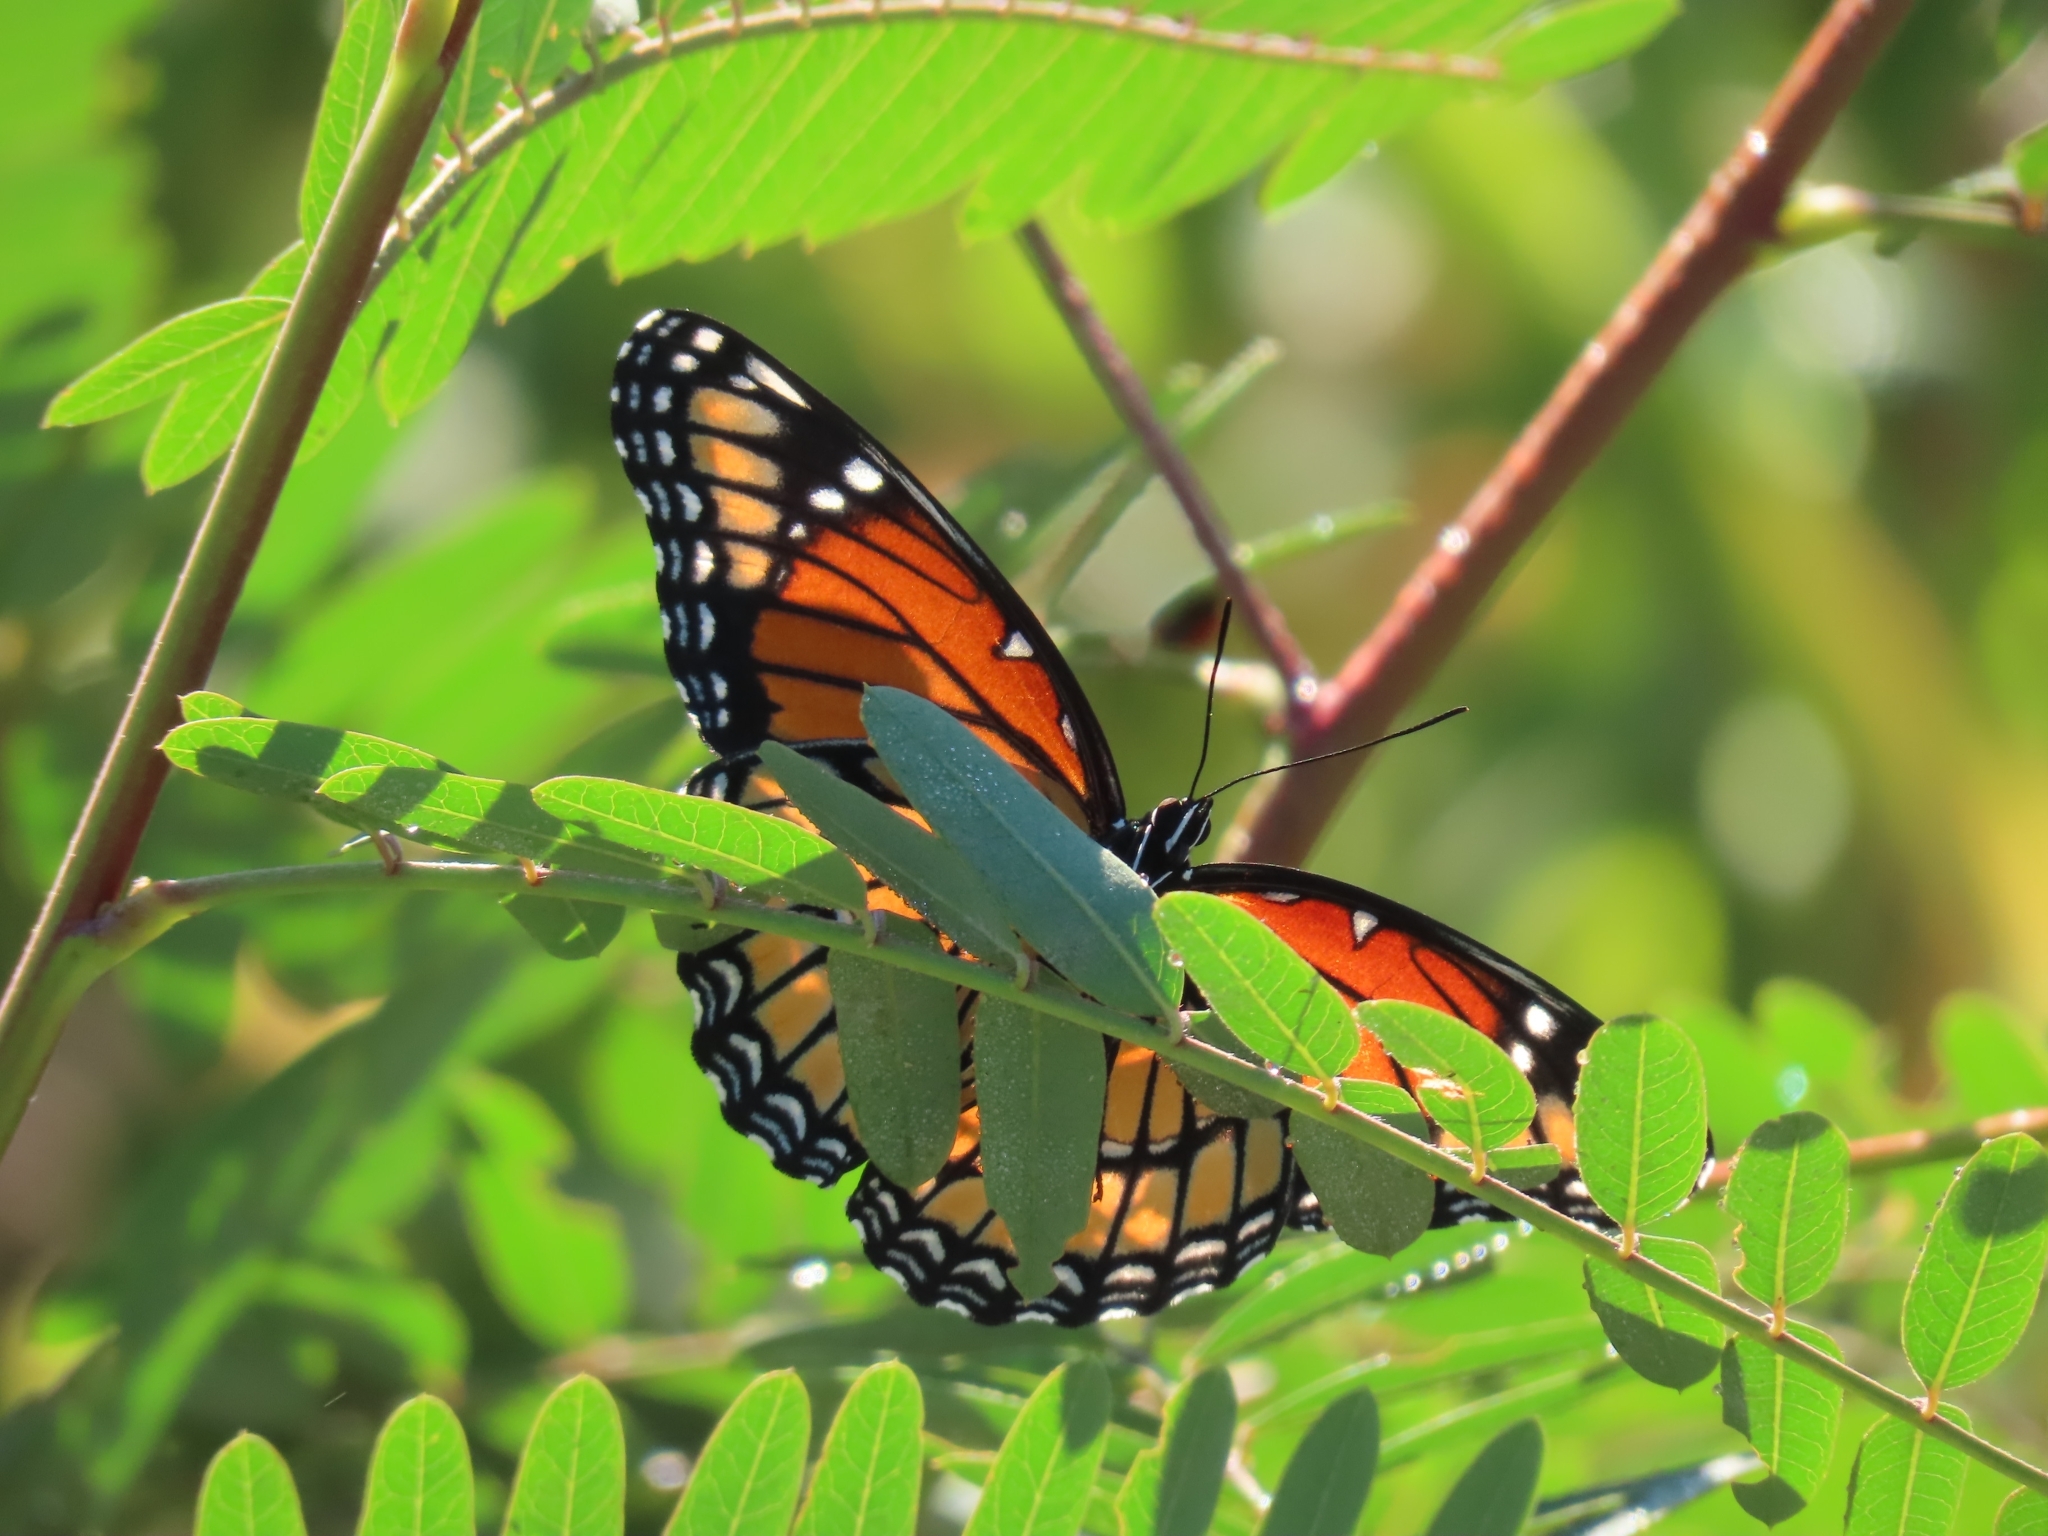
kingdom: Animalia
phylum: Arthropoda
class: Insecta
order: Lepidoptera
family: Nymphalidae
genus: Limenitis
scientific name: Limenitis archippus
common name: Viceroy
